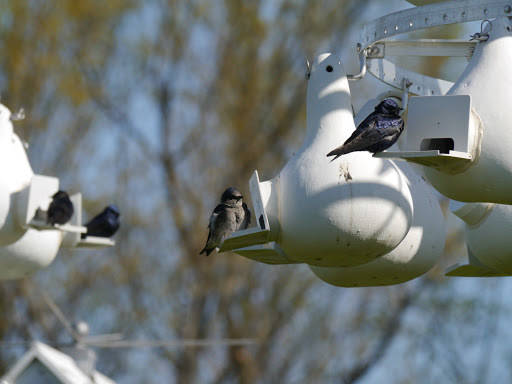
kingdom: Animalia
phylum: Chordata
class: Aves
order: Passeriformes
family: Hirundinidae
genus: Progne
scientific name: Progne subis
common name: Purple martin
